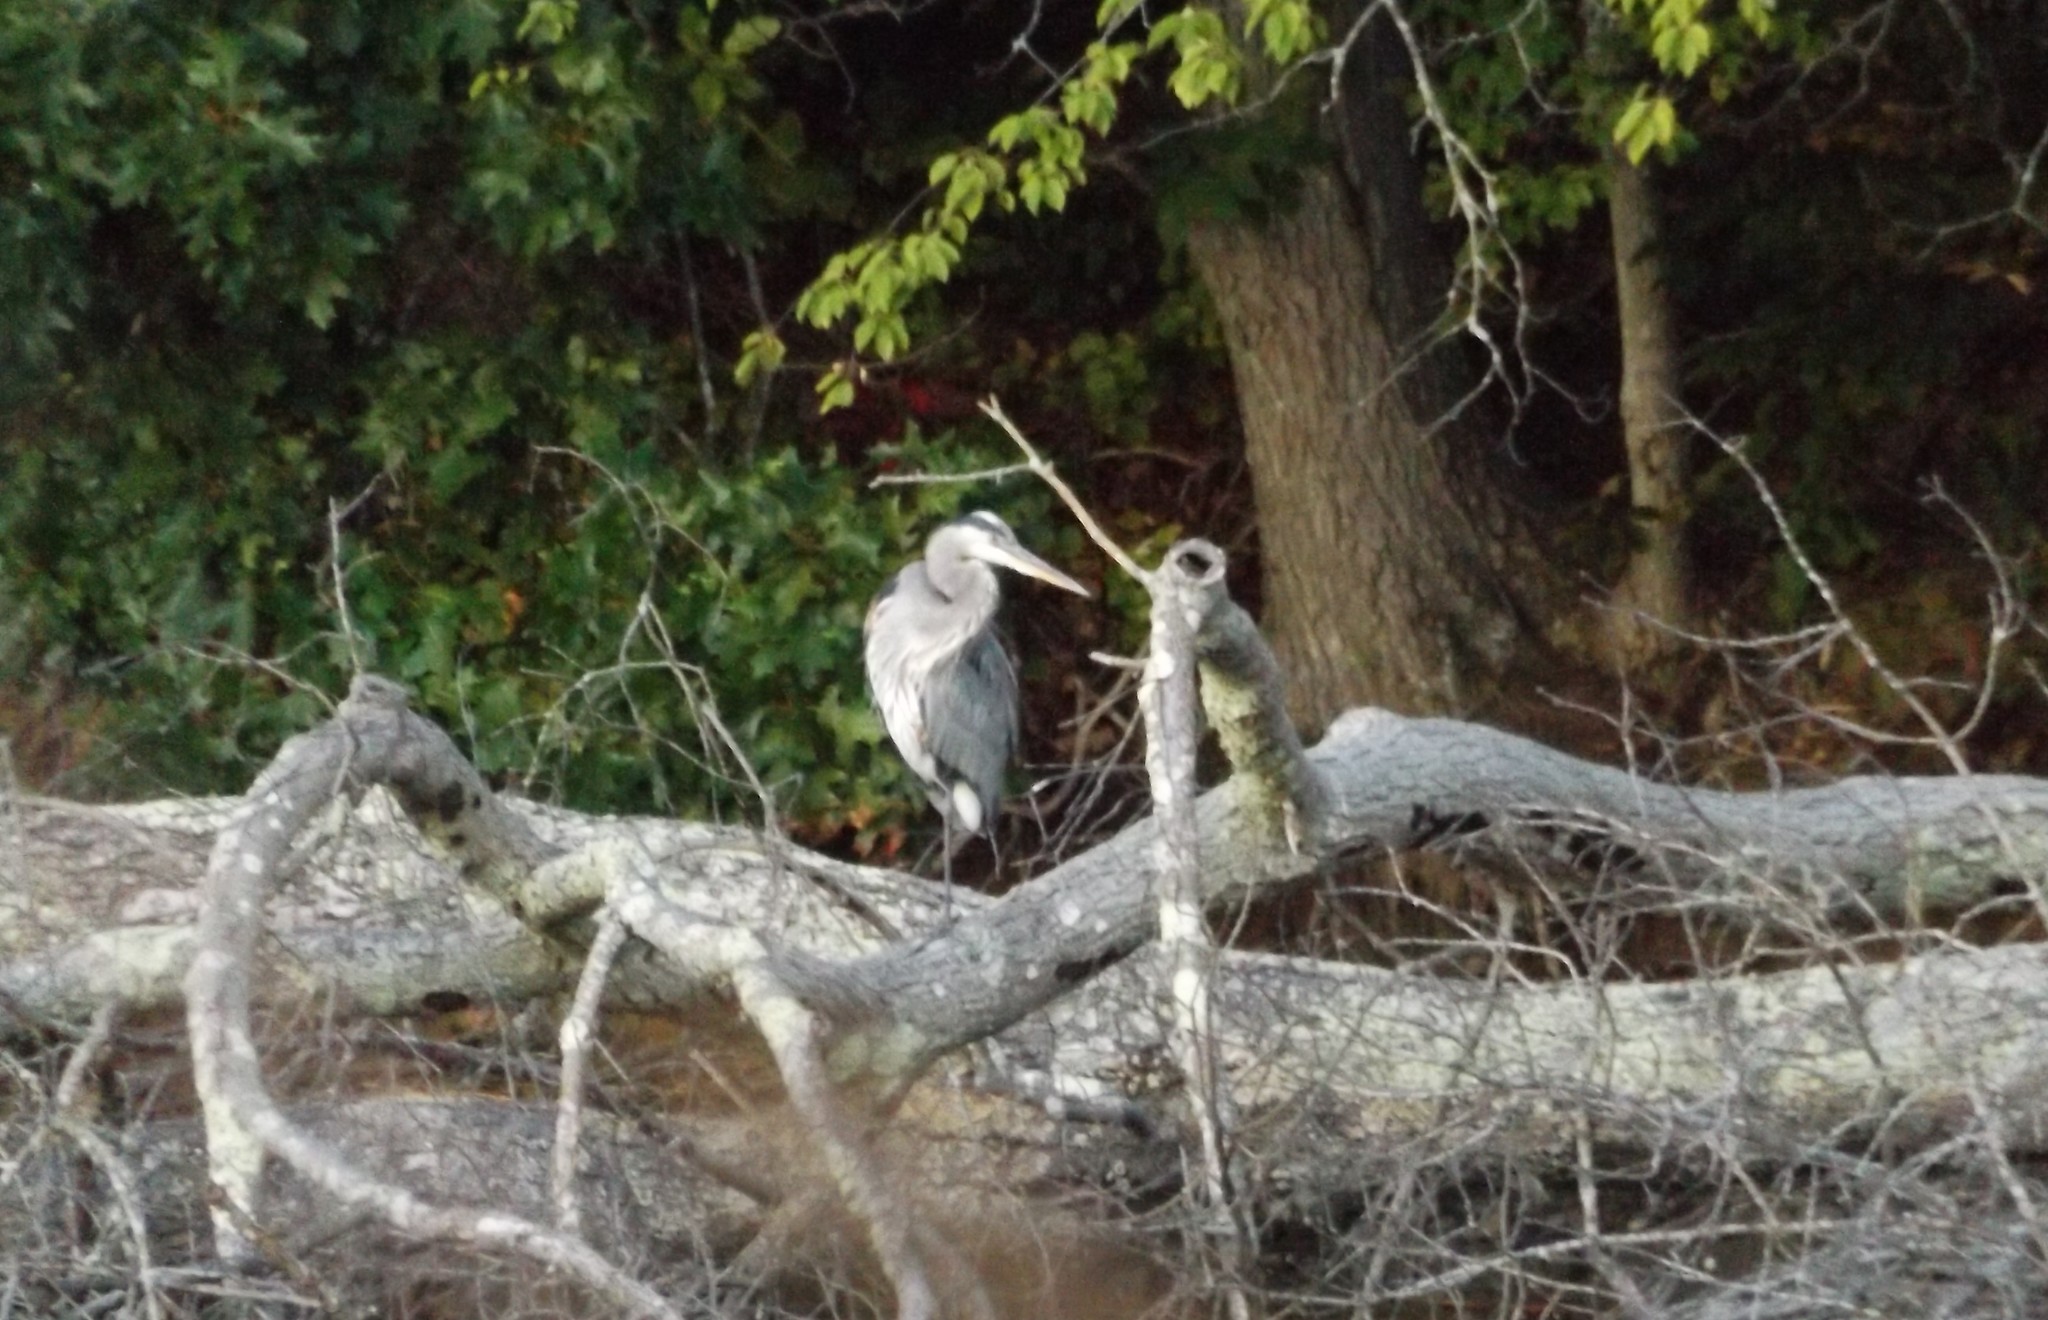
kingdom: Animalia
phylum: Chordata
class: Aves
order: Pelecaniformes
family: Ardeidae
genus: Ardea
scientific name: Ardea herodias
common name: Great blue heron
